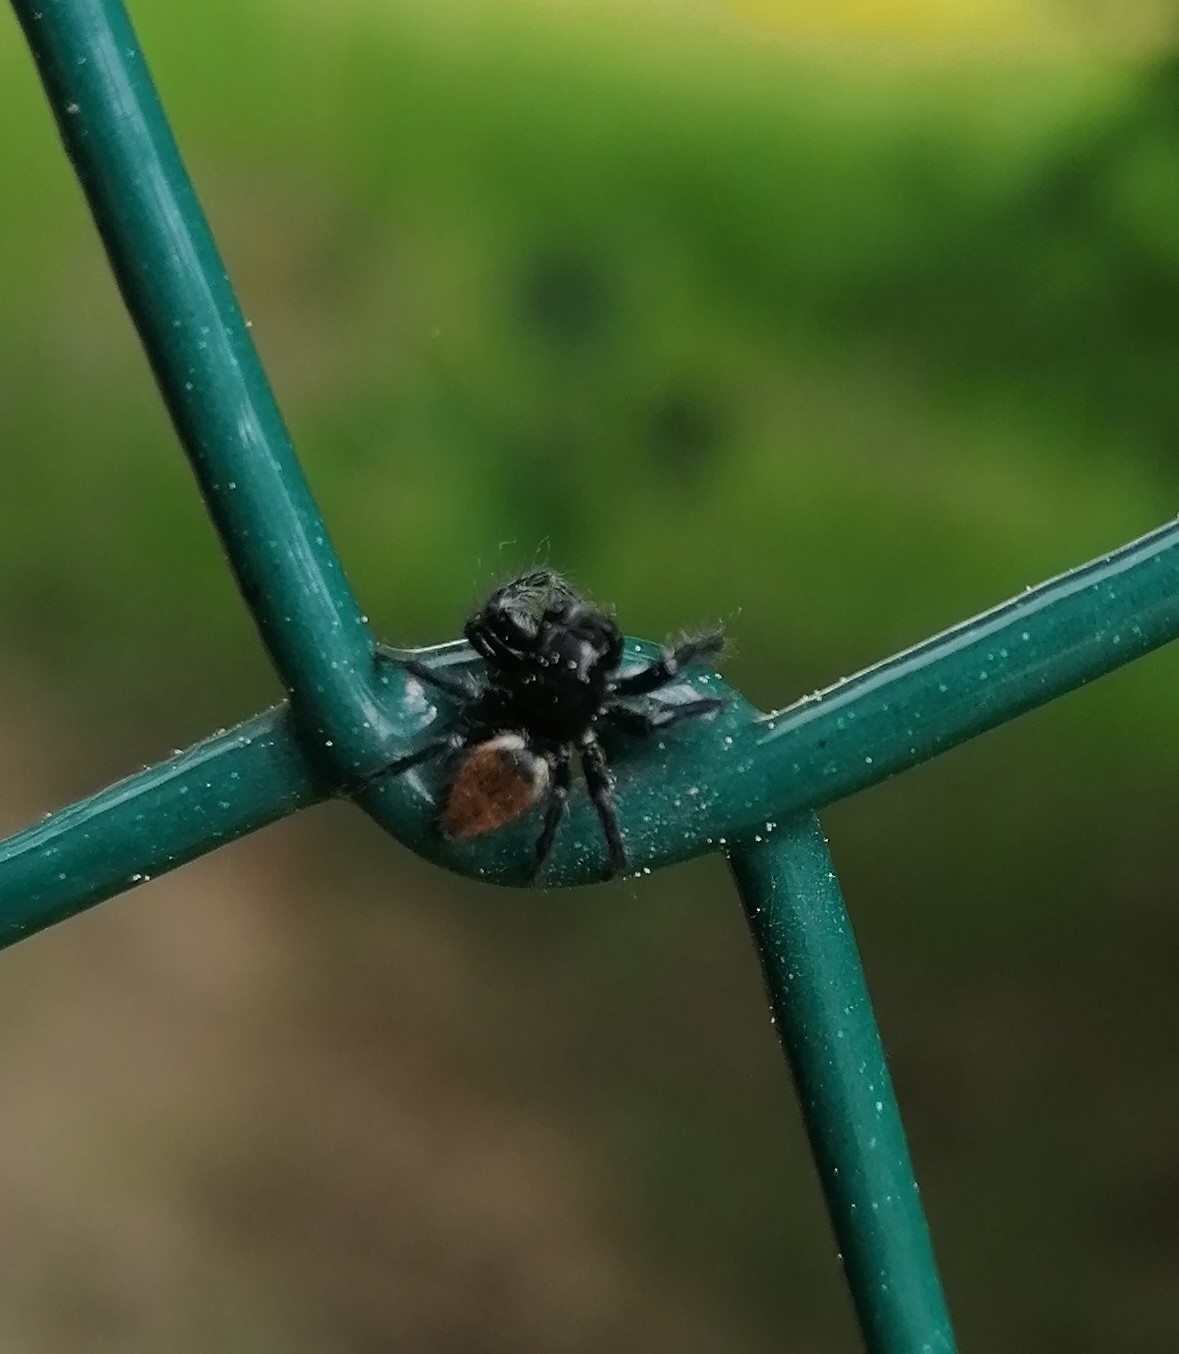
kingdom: Animalia
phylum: Arthropoda
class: Arachnida
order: Araneae
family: Salticidae
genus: Carrhotus
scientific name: Carrhotus xanthogramma
